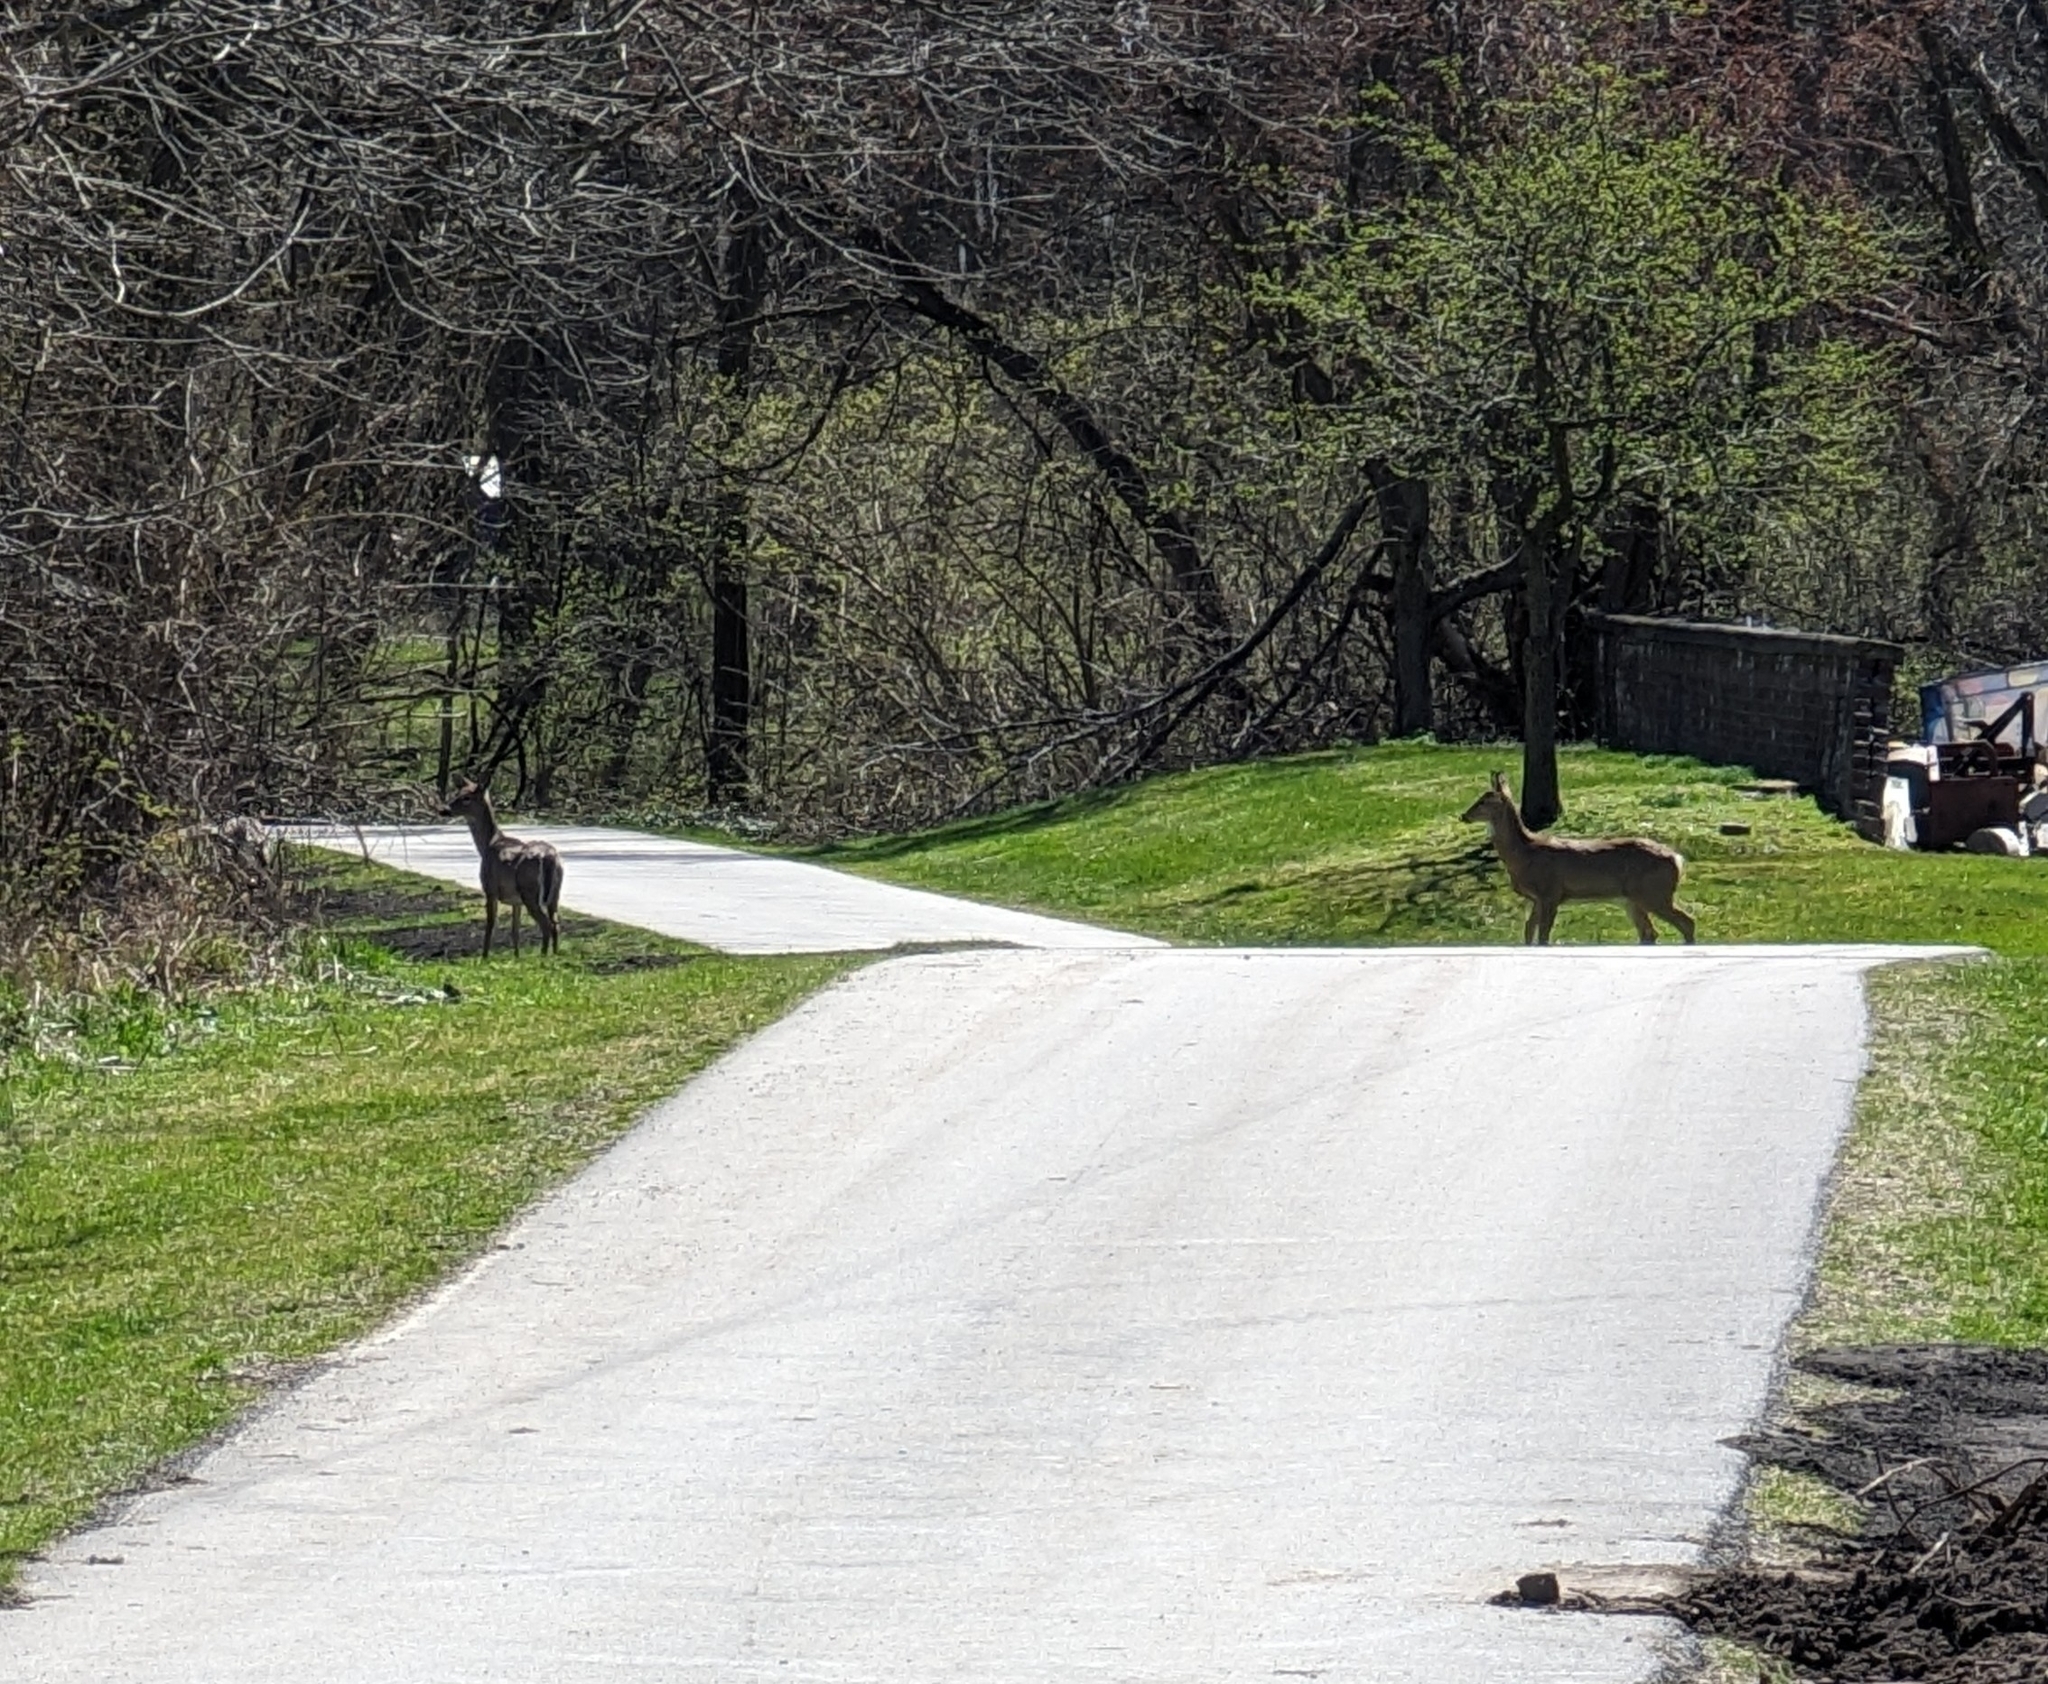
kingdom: Animalia
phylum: Chordata
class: Mammalia
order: Artiodactyla
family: Cervidae
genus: Odocoileus
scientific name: Odocoileus virginianus
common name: White-tailed deer
